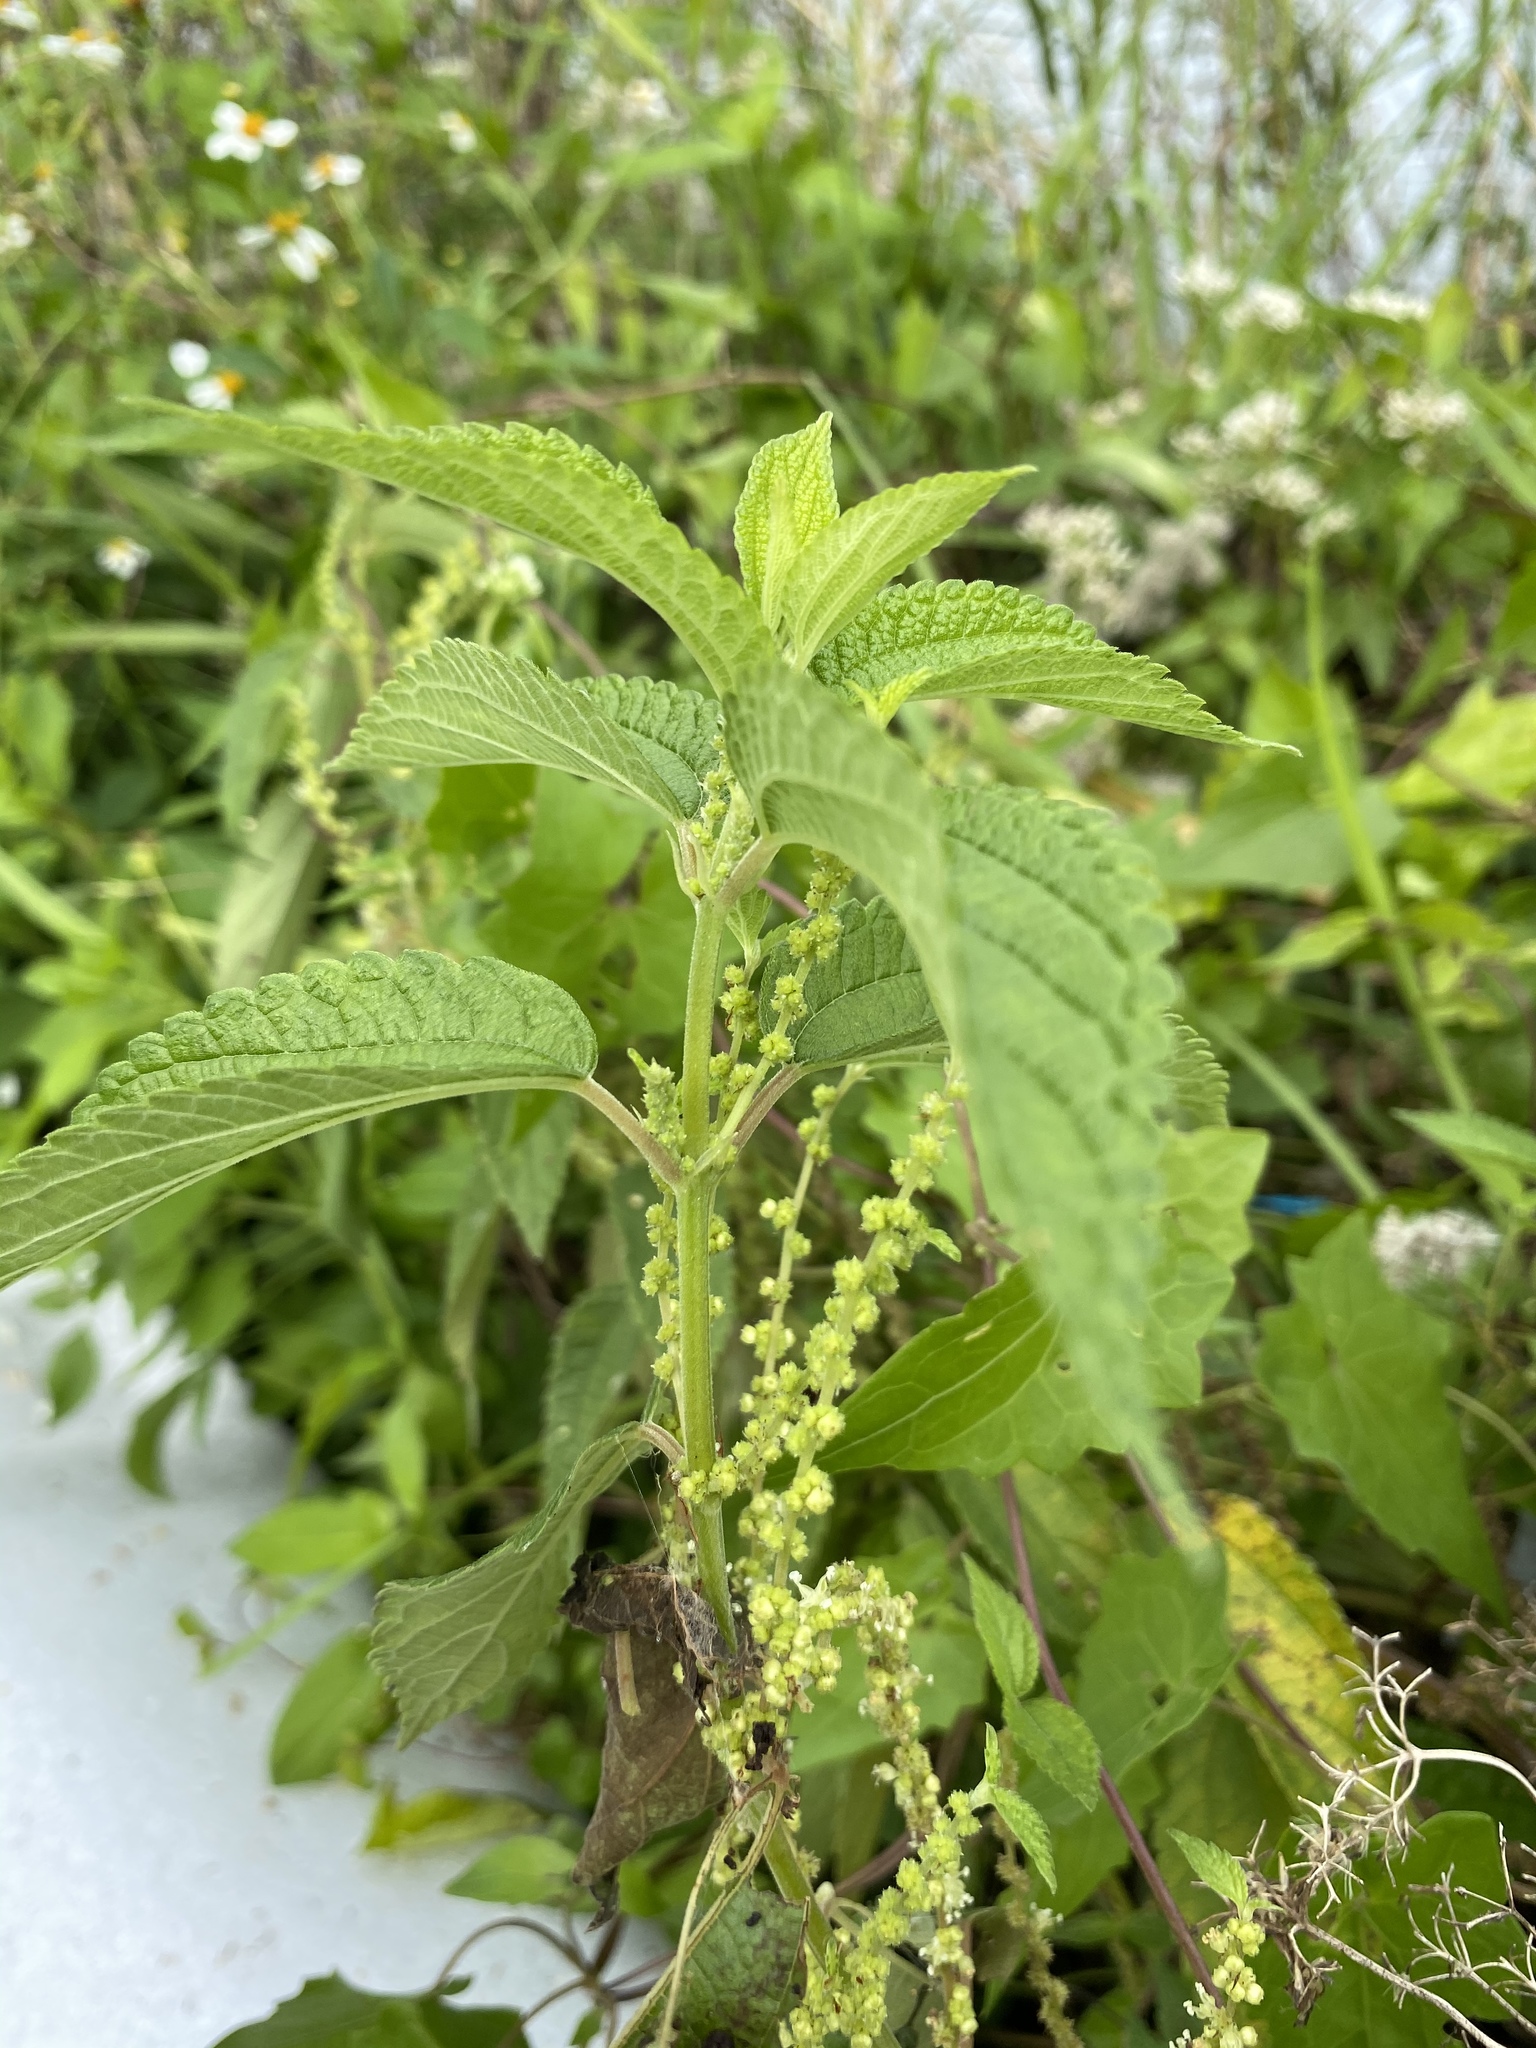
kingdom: Plantae
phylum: Tracheophyta
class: Magnoliopsida
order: Rosales
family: Urticaceae
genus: Boehmeria
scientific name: Boehmeria cylindrica
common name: Bog-hemp
